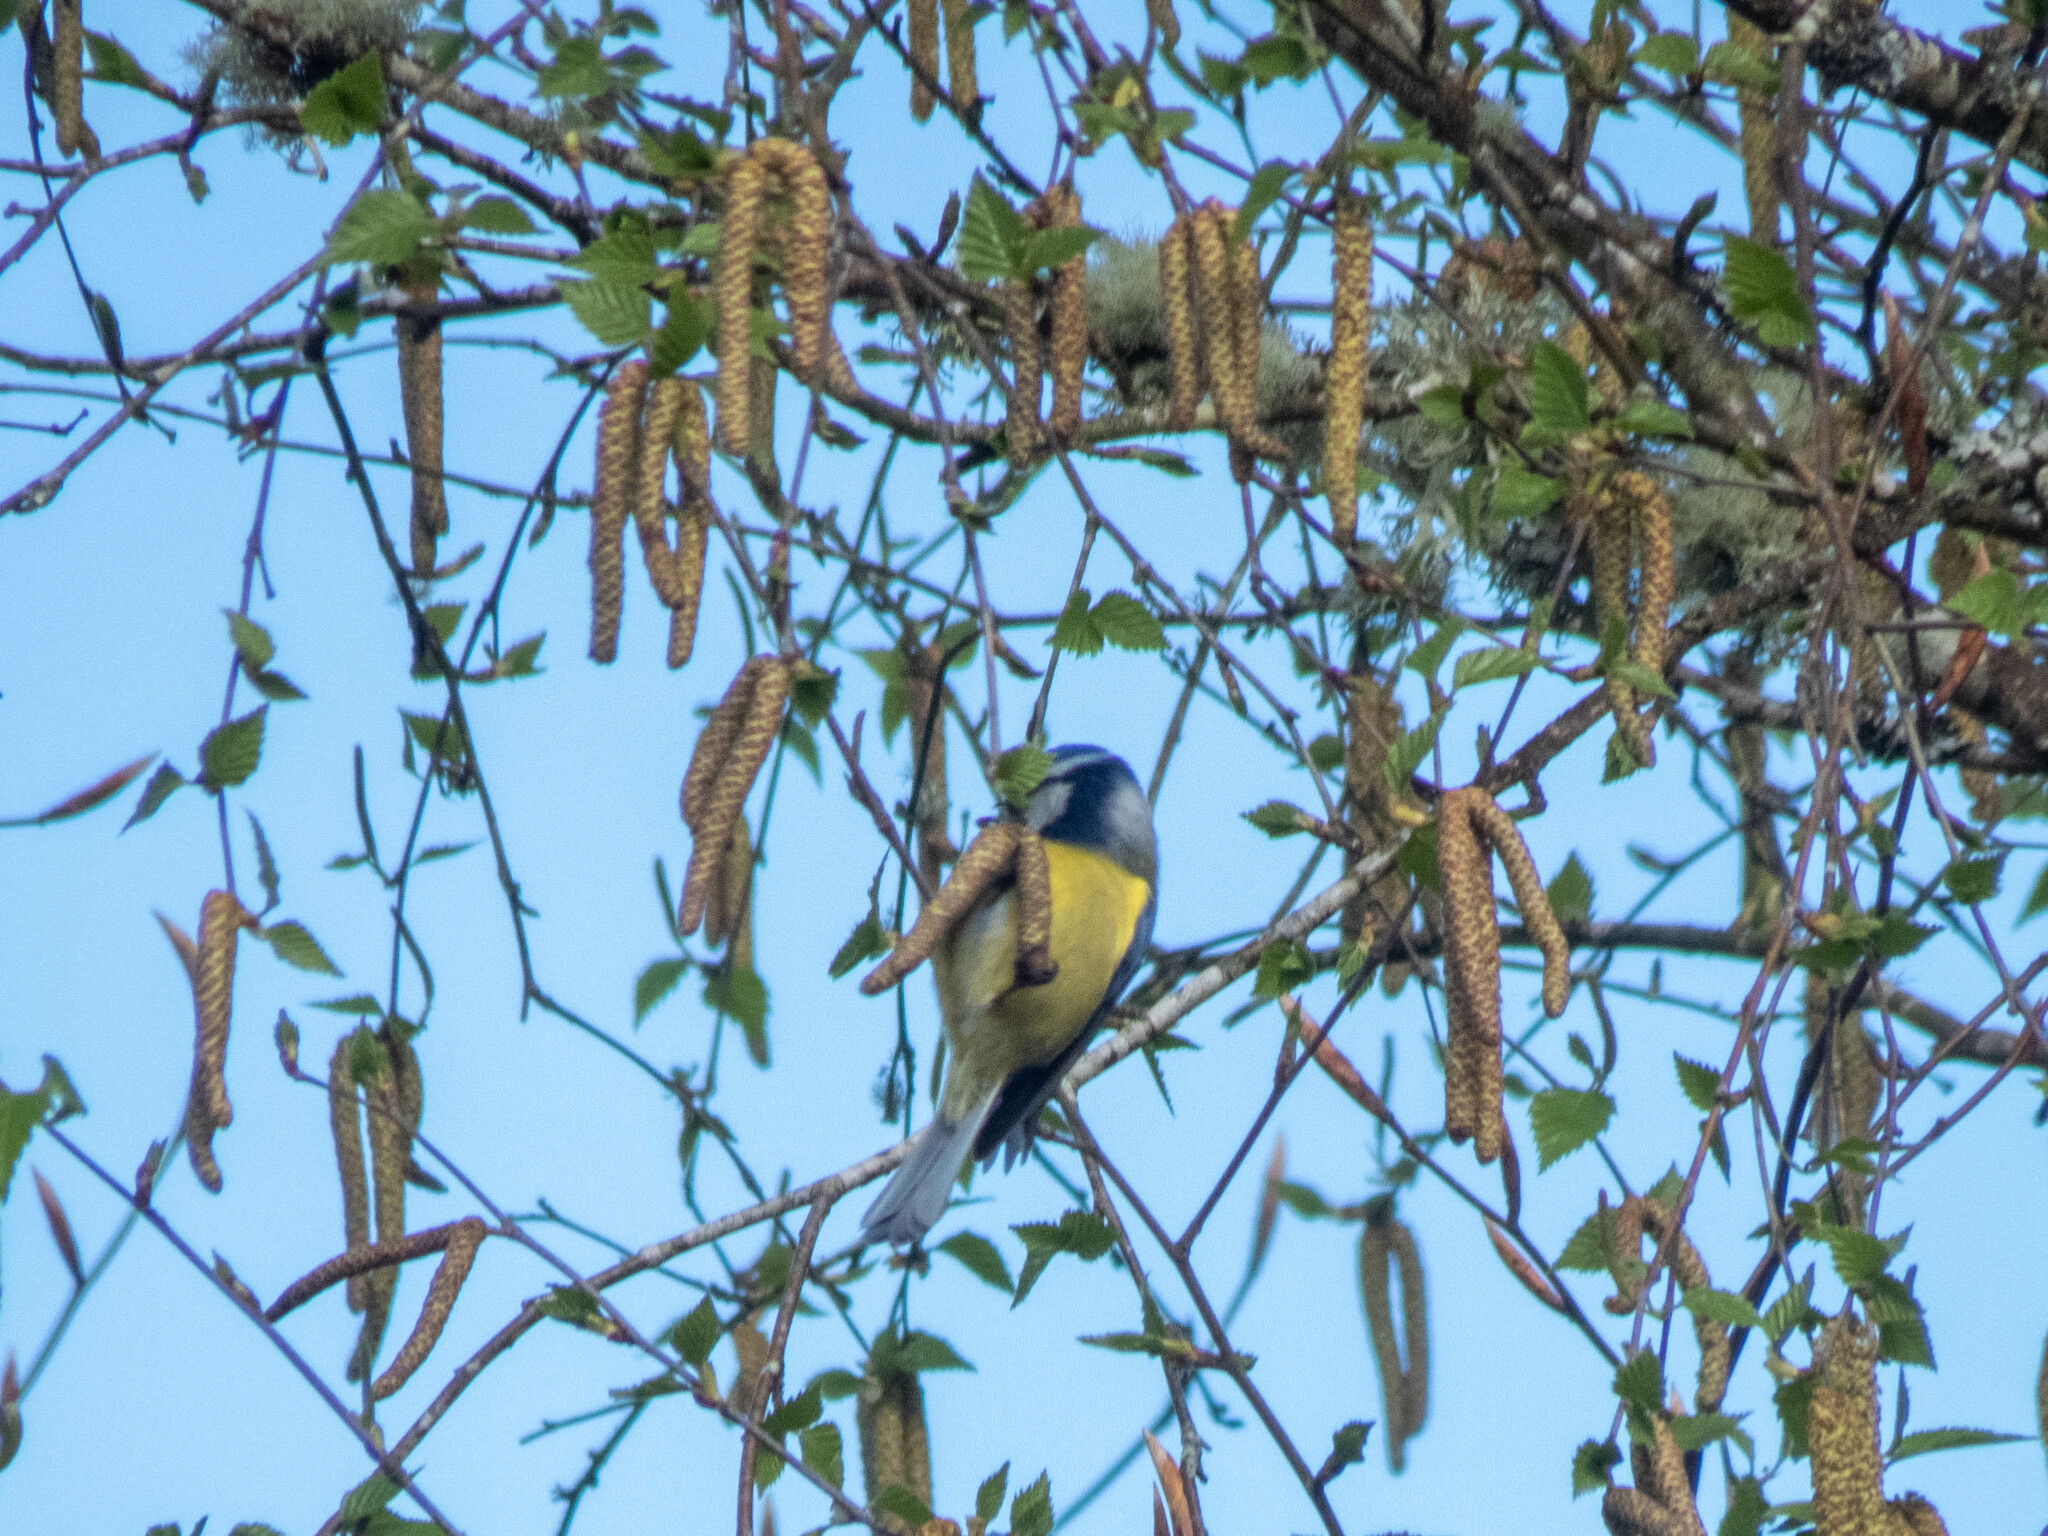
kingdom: Animalia
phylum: Chordata
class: Aves
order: Passeriformes
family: Paridae
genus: Cyanistes
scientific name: Cyanistes caeruleus
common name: Eurasian blue tit
